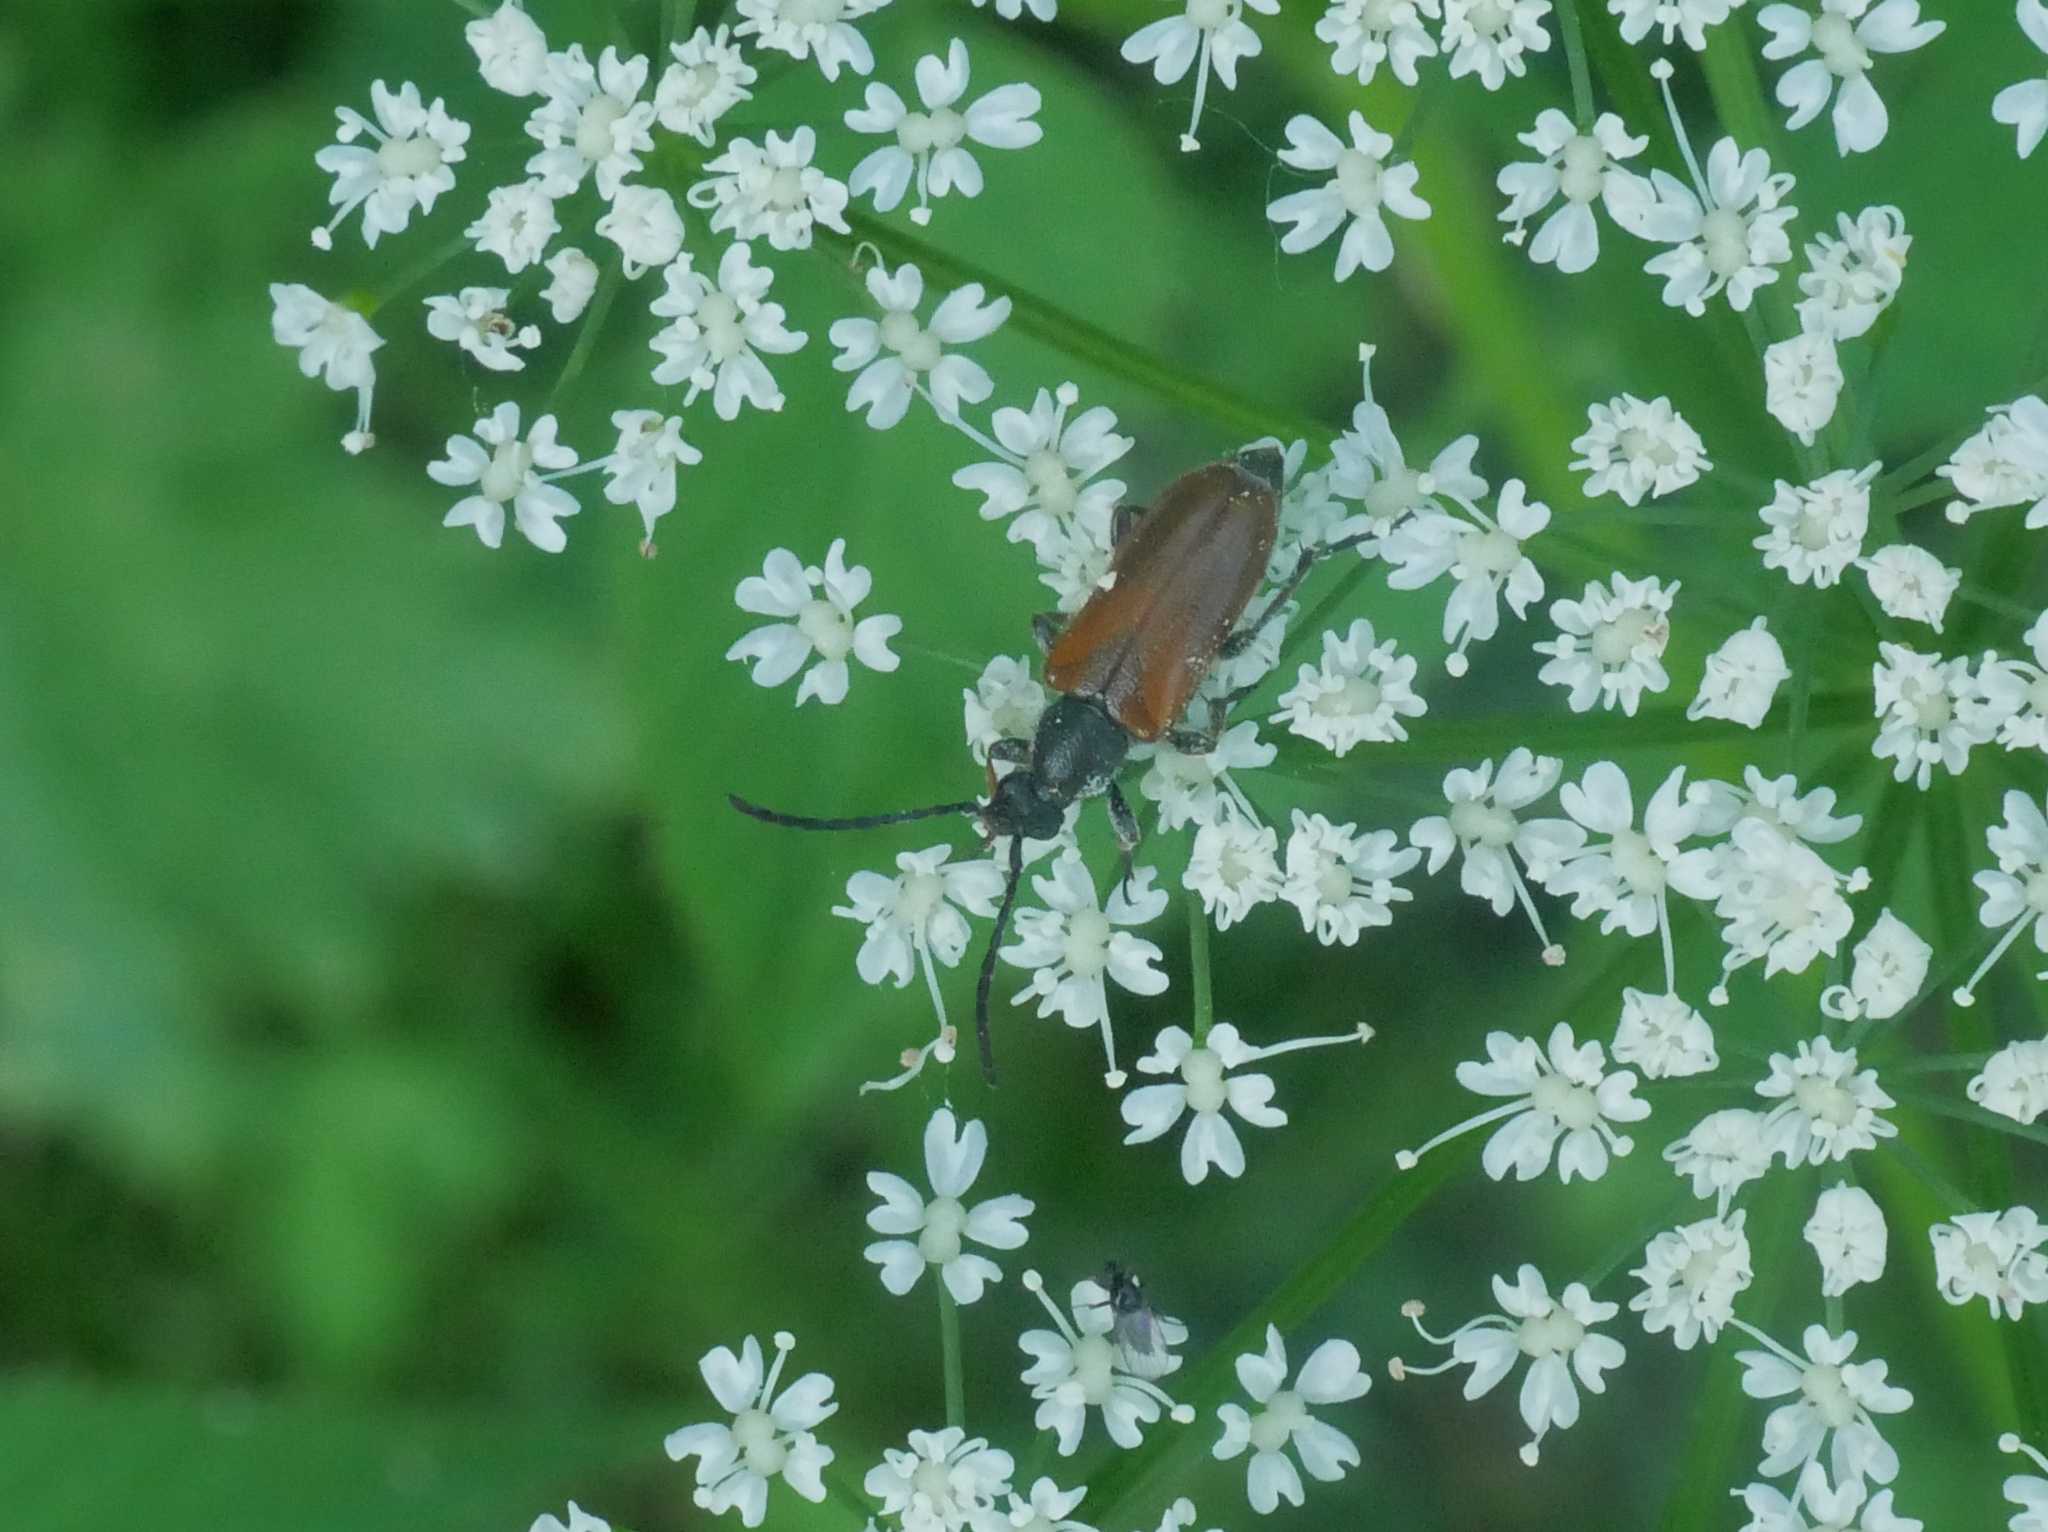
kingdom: Animalia
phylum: Arthropoda
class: Insecta
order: Coleoptera
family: Cerambycidae
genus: Pseudovadonia
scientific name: Pseudovadonia livida
